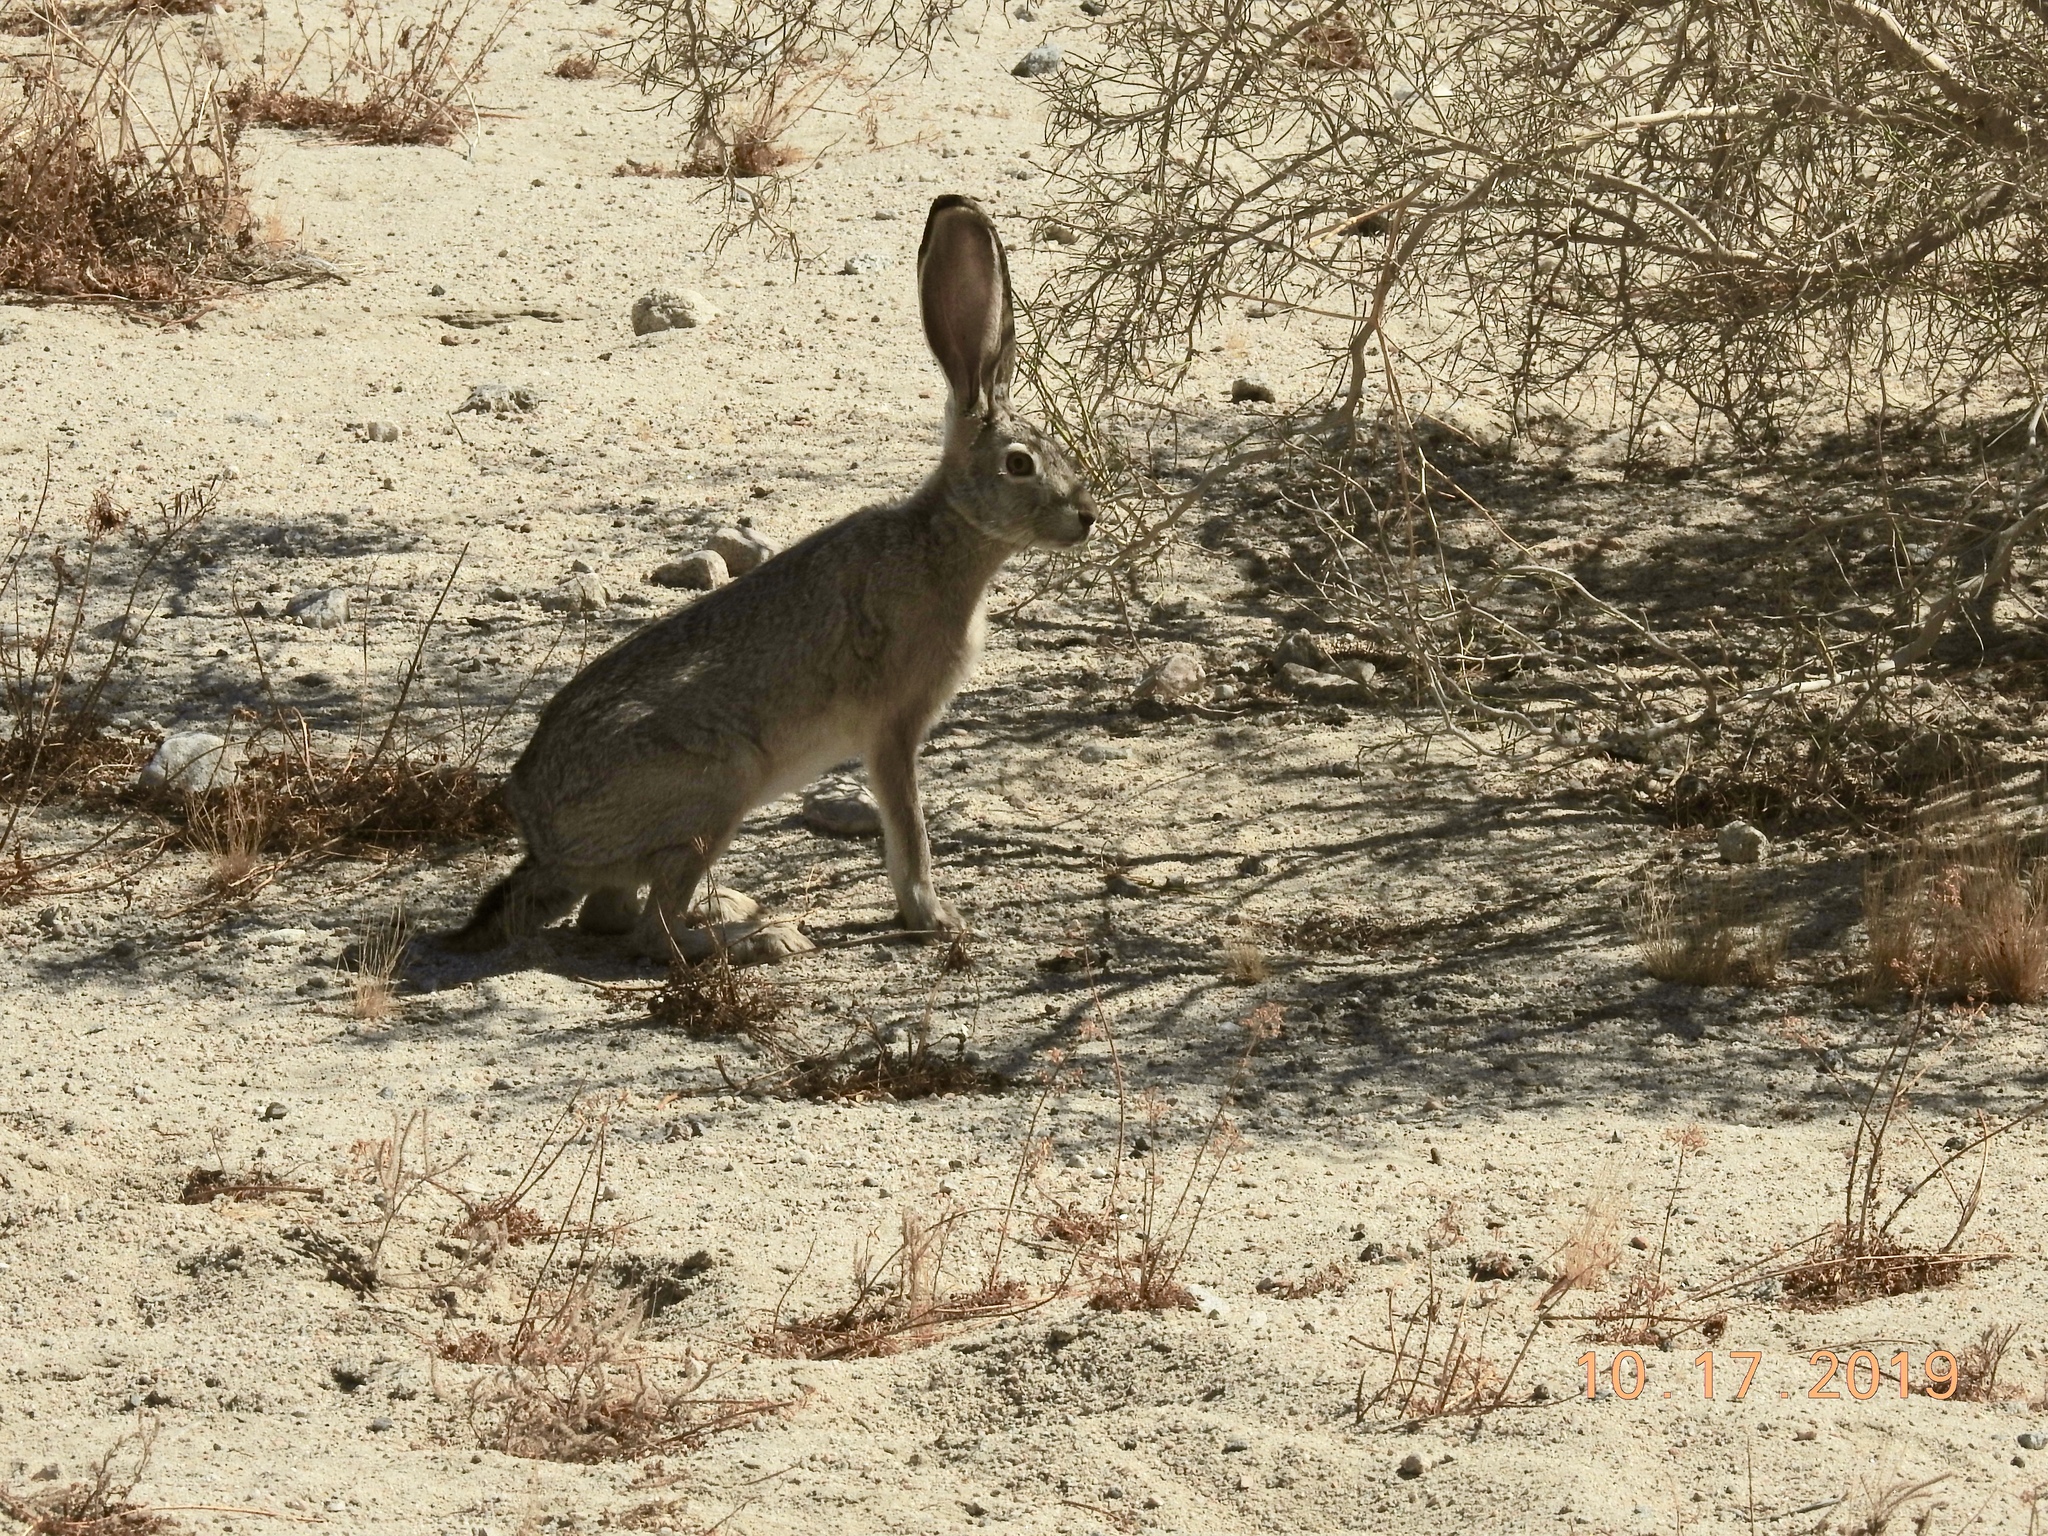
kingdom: Animalia
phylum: Chordata
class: Mammalia
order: Lagomorpha
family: Leporidae
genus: Lepus
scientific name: Lepus californicus
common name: Black-tailed jackrabbit
